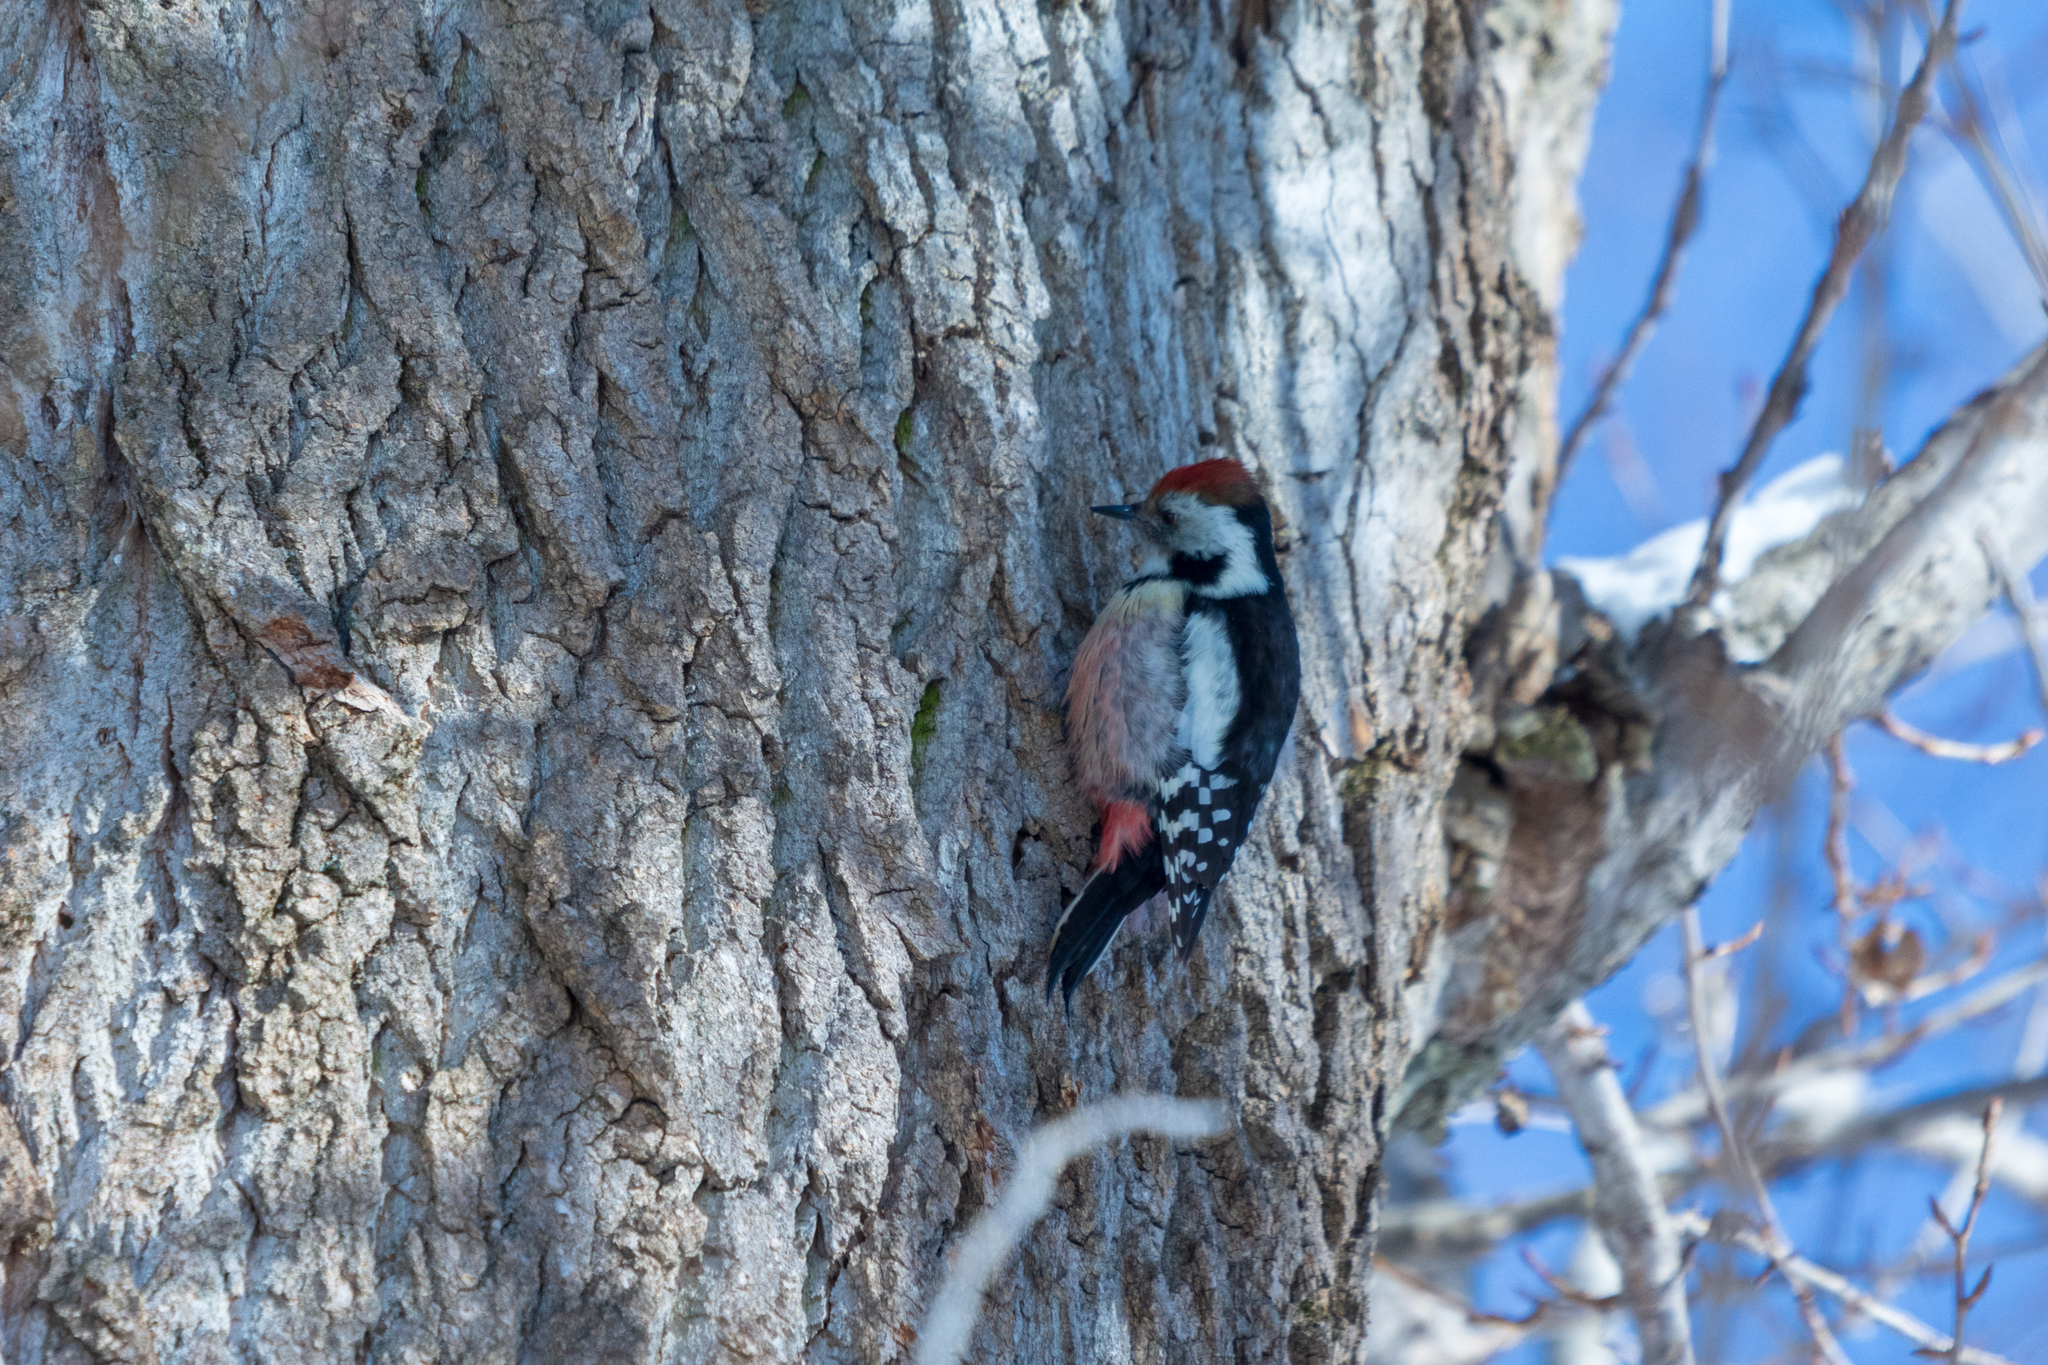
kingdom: Animalia
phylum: Chordata
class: Aves
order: Piciformes
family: Picidae
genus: Dendrocoptes
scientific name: Dendrocoptes medius
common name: Middle spotted woodpecker
